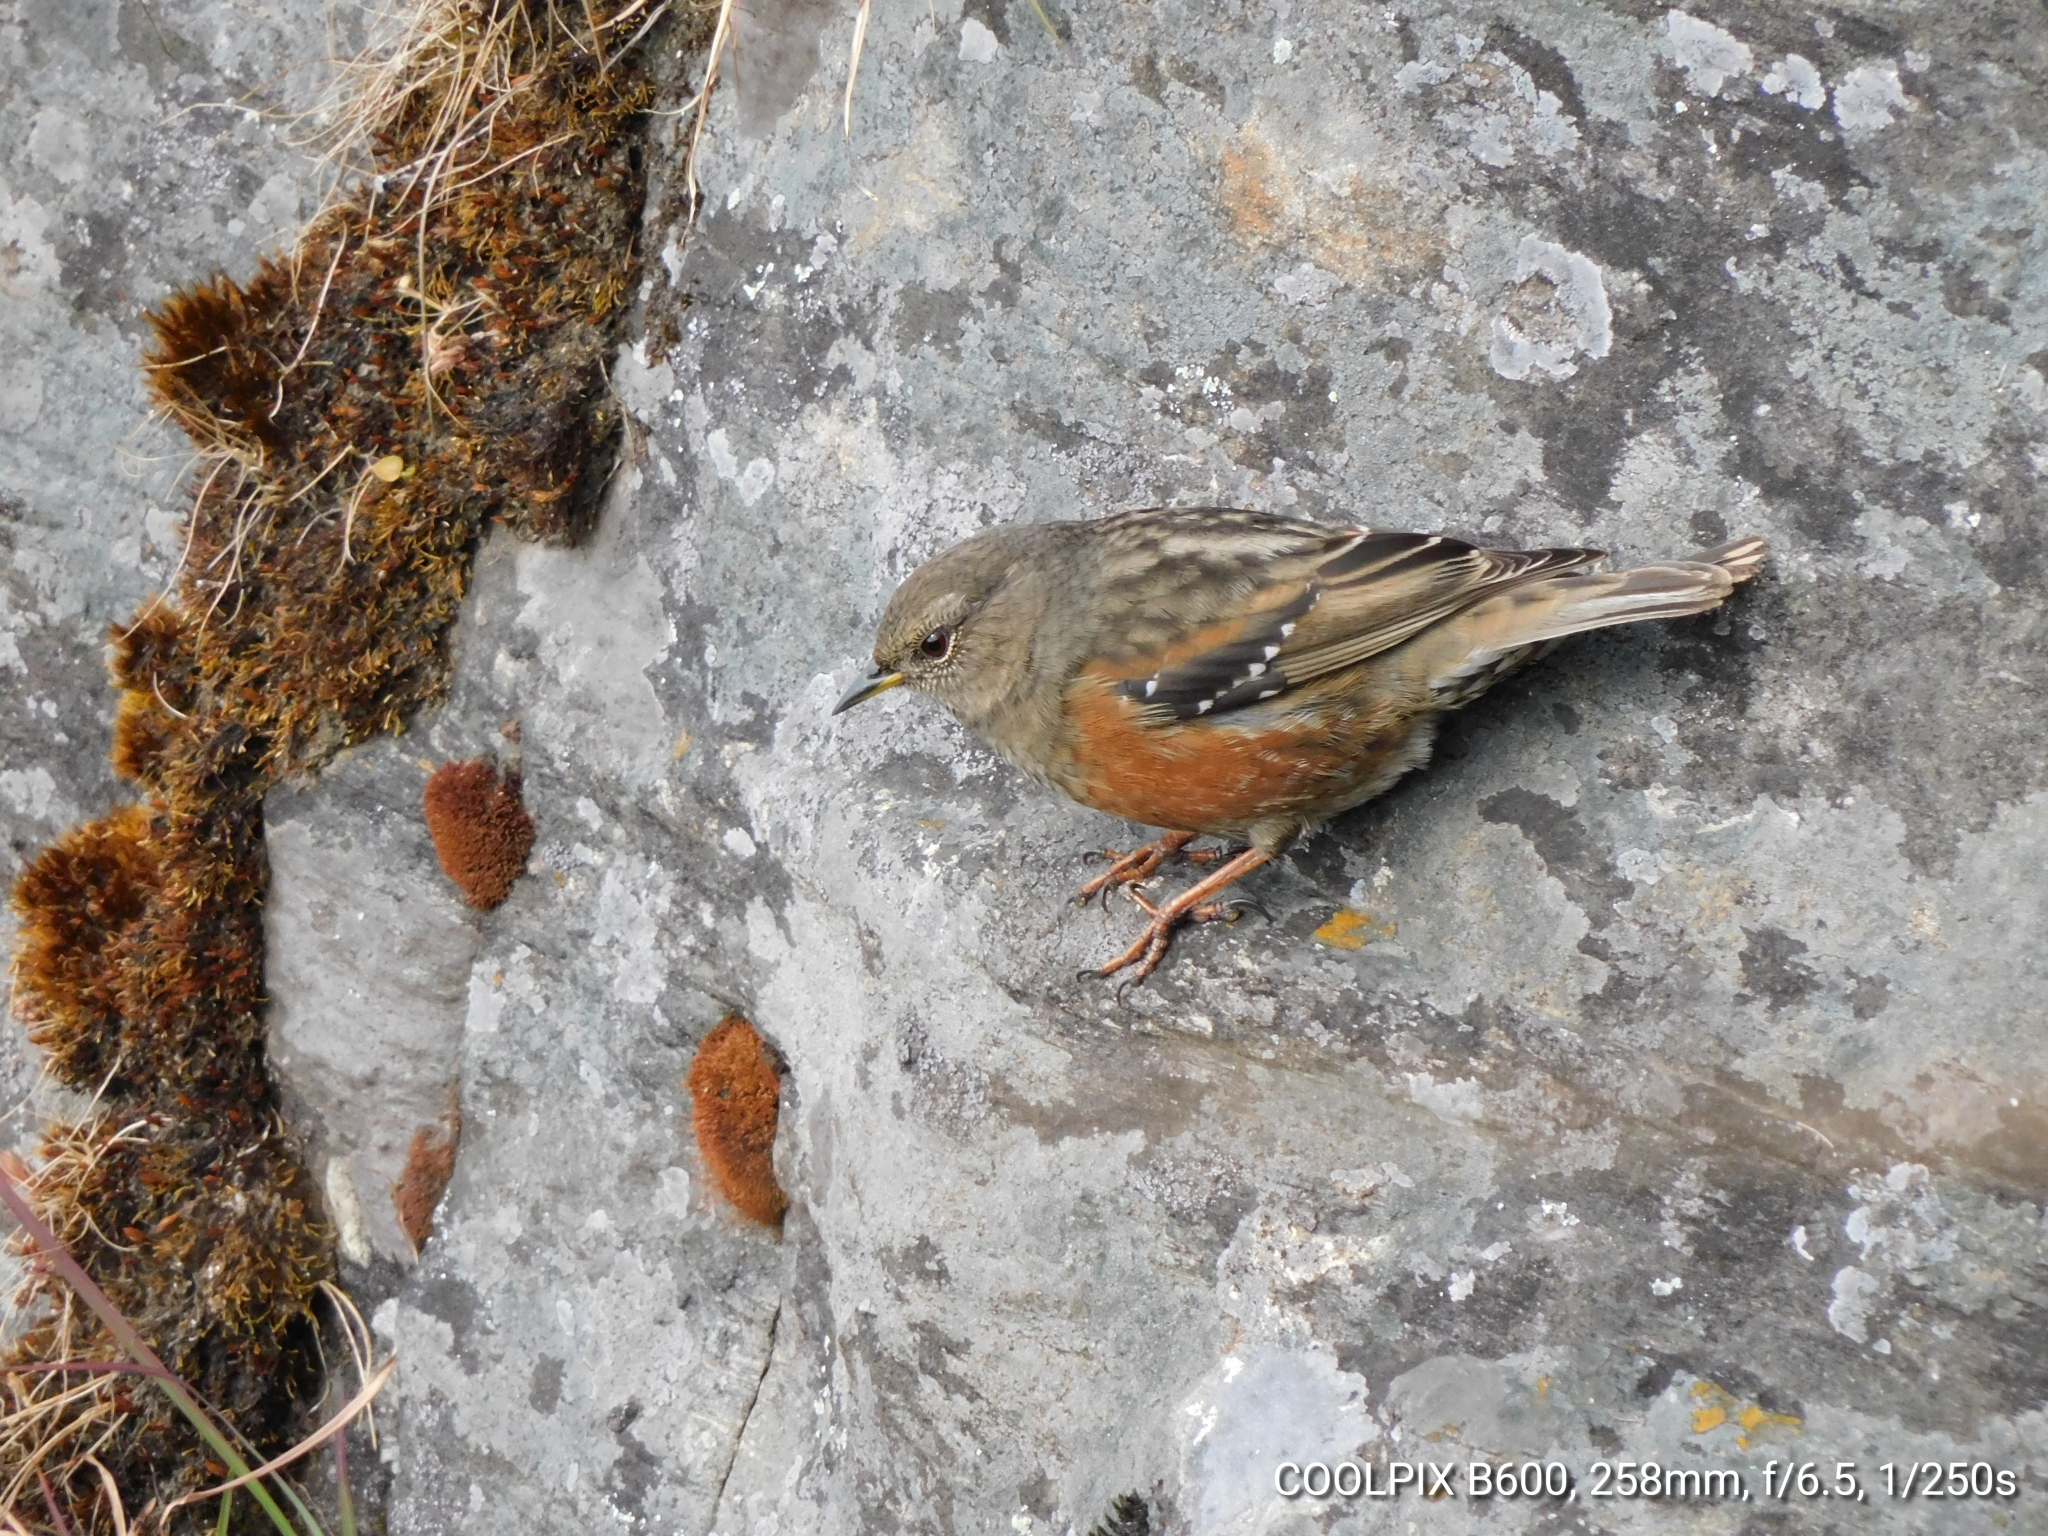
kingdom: Animalia
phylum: Chordata
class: Aves
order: Passeriformes
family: Prunellidae
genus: Prunella
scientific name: Prunella collaris
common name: Alpine accentor
